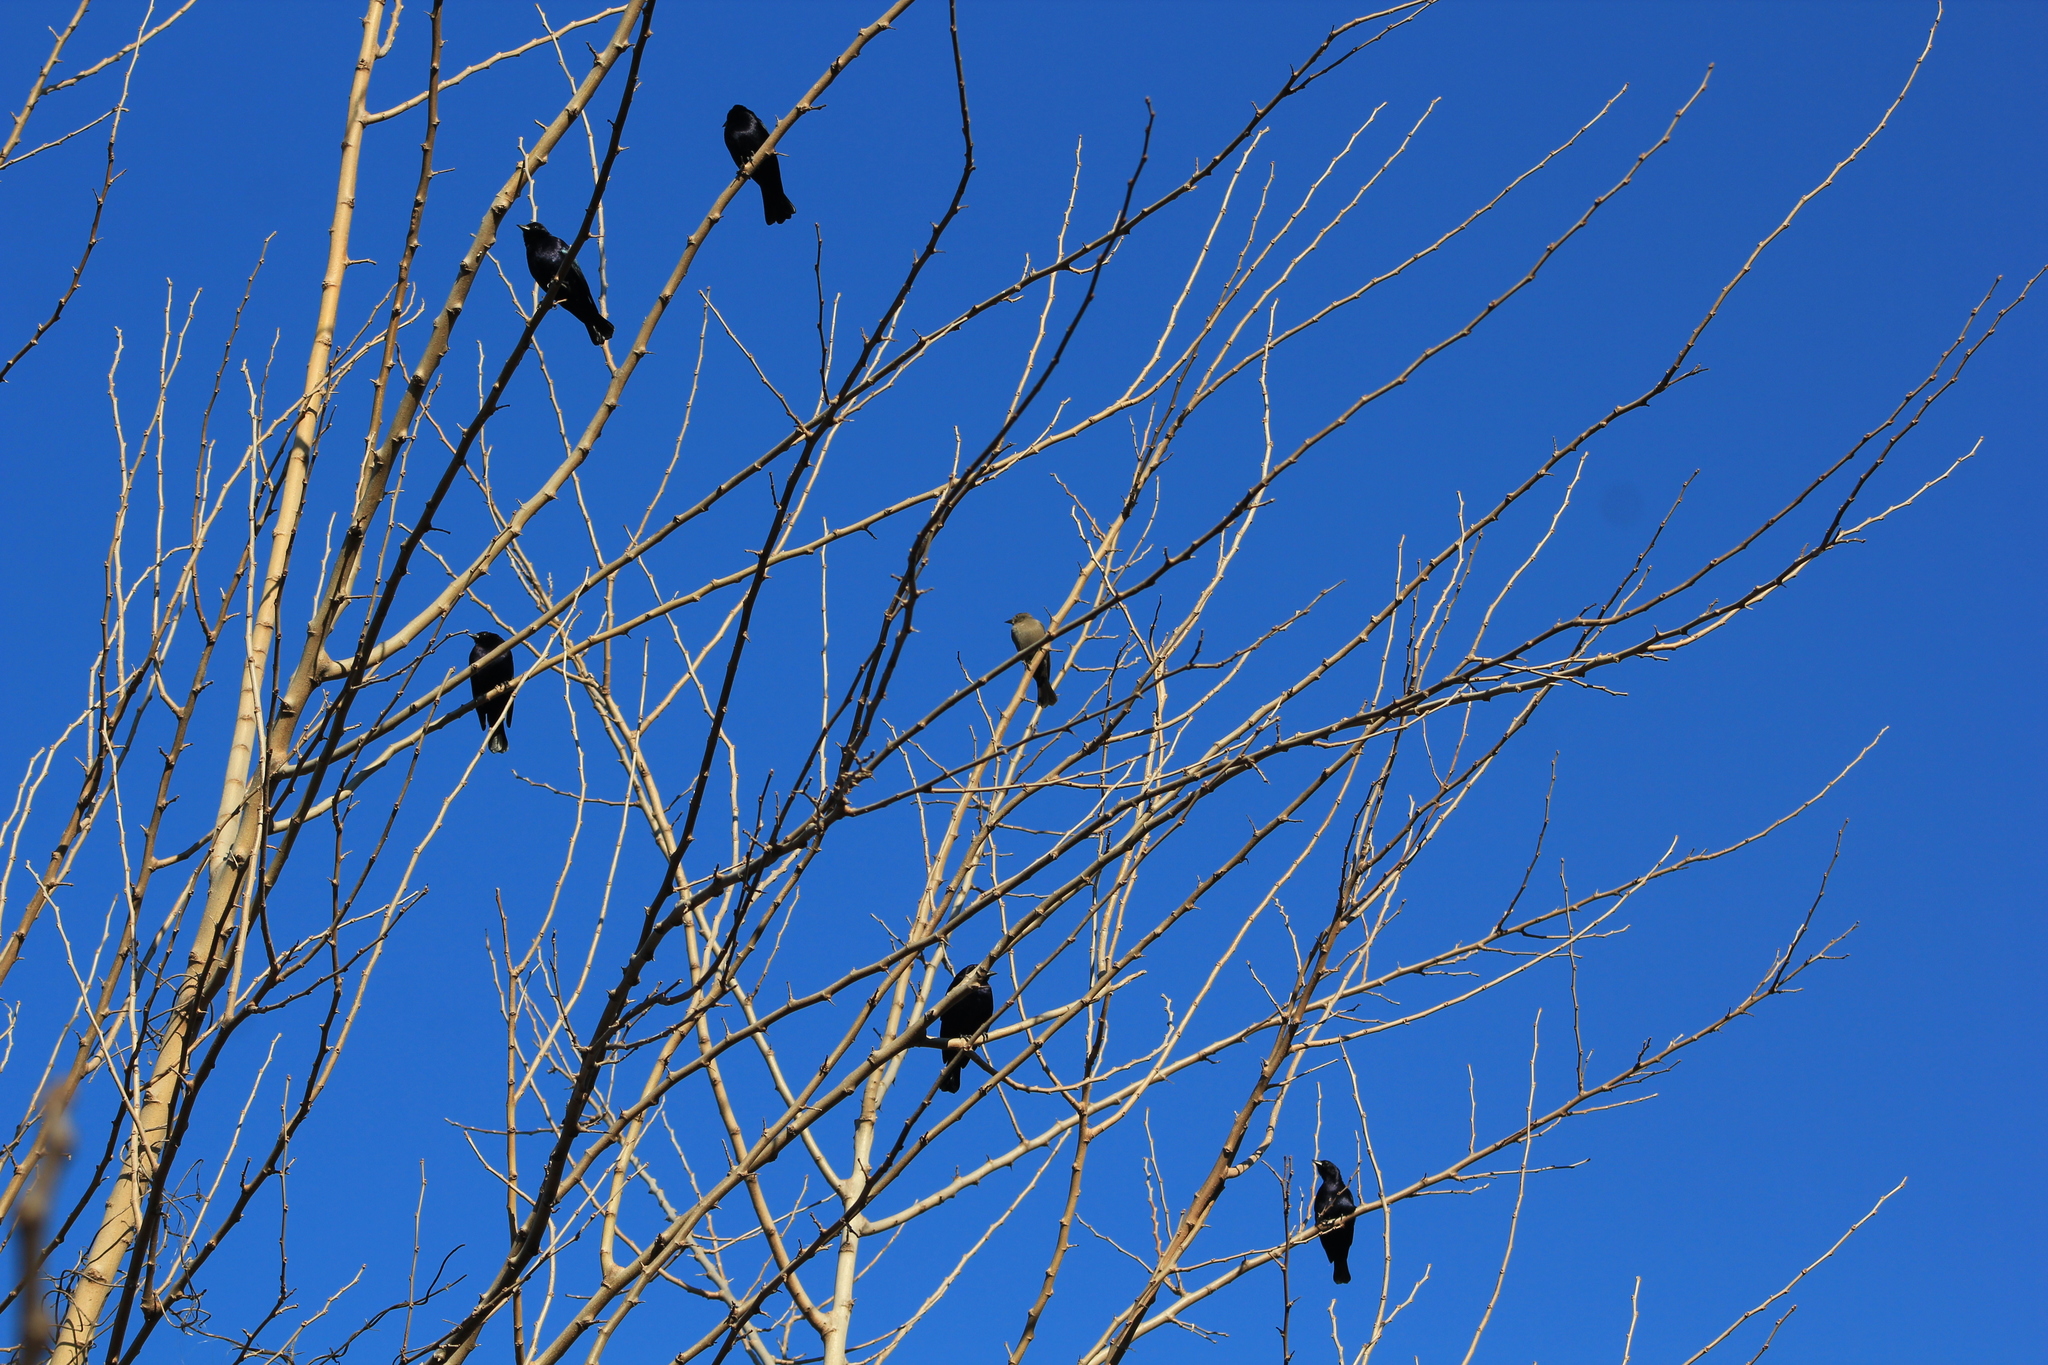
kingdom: Animalia
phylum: Chordata
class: Aves
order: Passeriformes
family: Icteridae
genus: Molothrus
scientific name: Molothrus bonariensis
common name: Shiny cowbird
